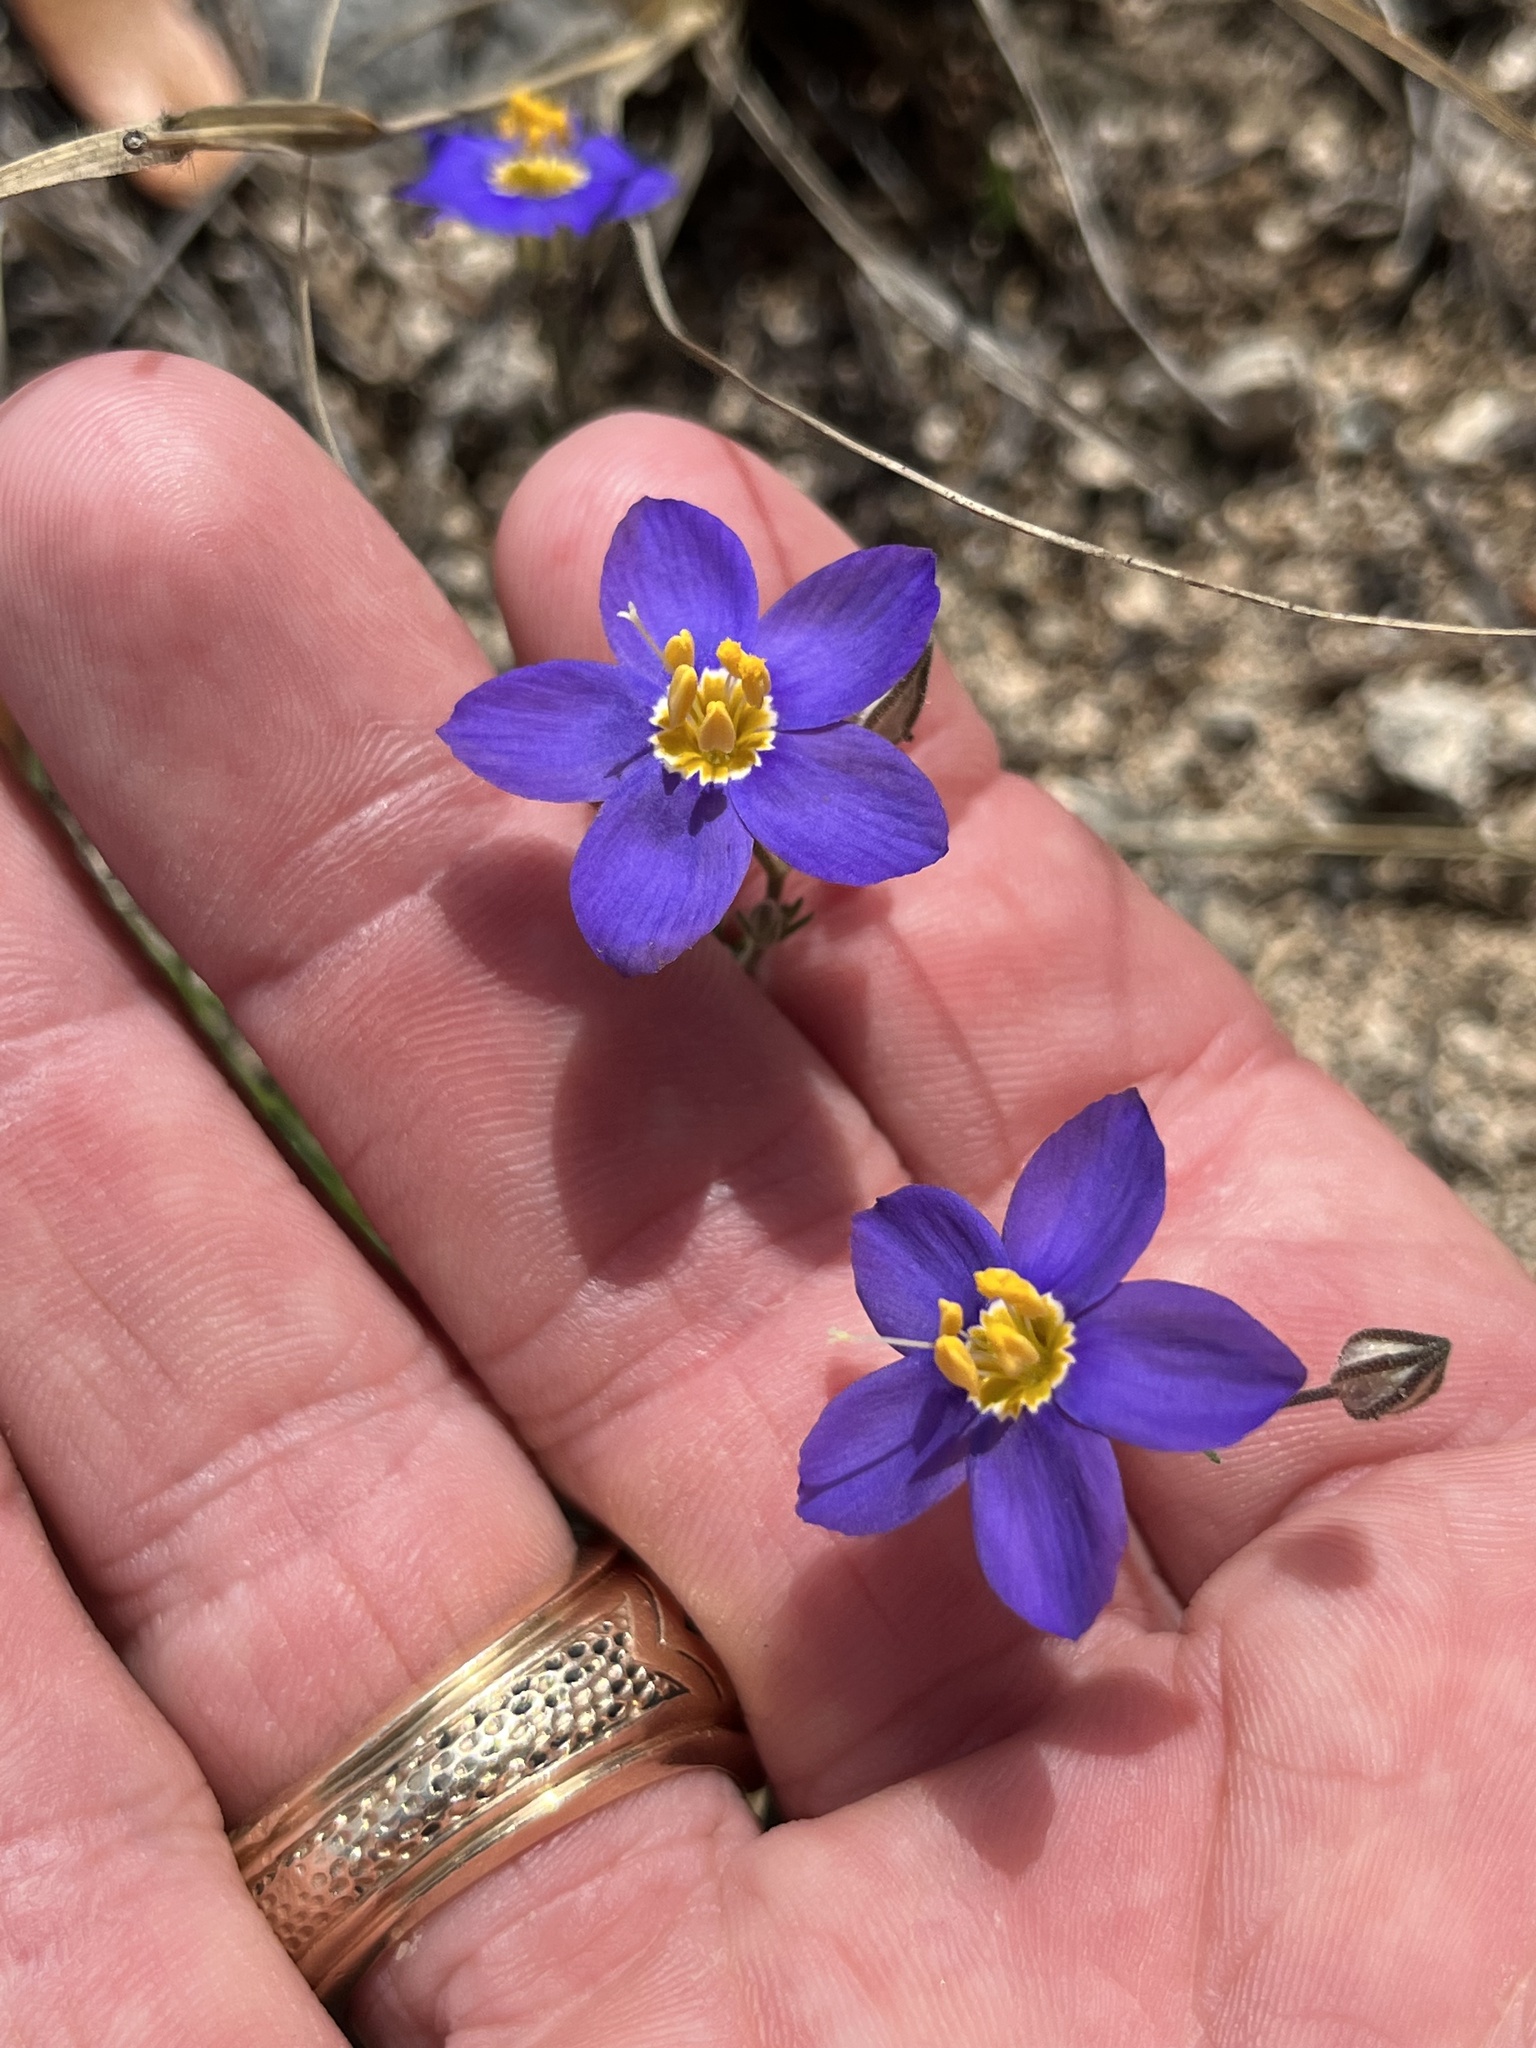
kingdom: Plantae
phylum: Tracheophyta
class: Magnoliopsida
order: Ericales
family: Polemoniaceae
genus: Giliastrum
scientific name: Giliastrum rigidulum
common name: Bluebowls
